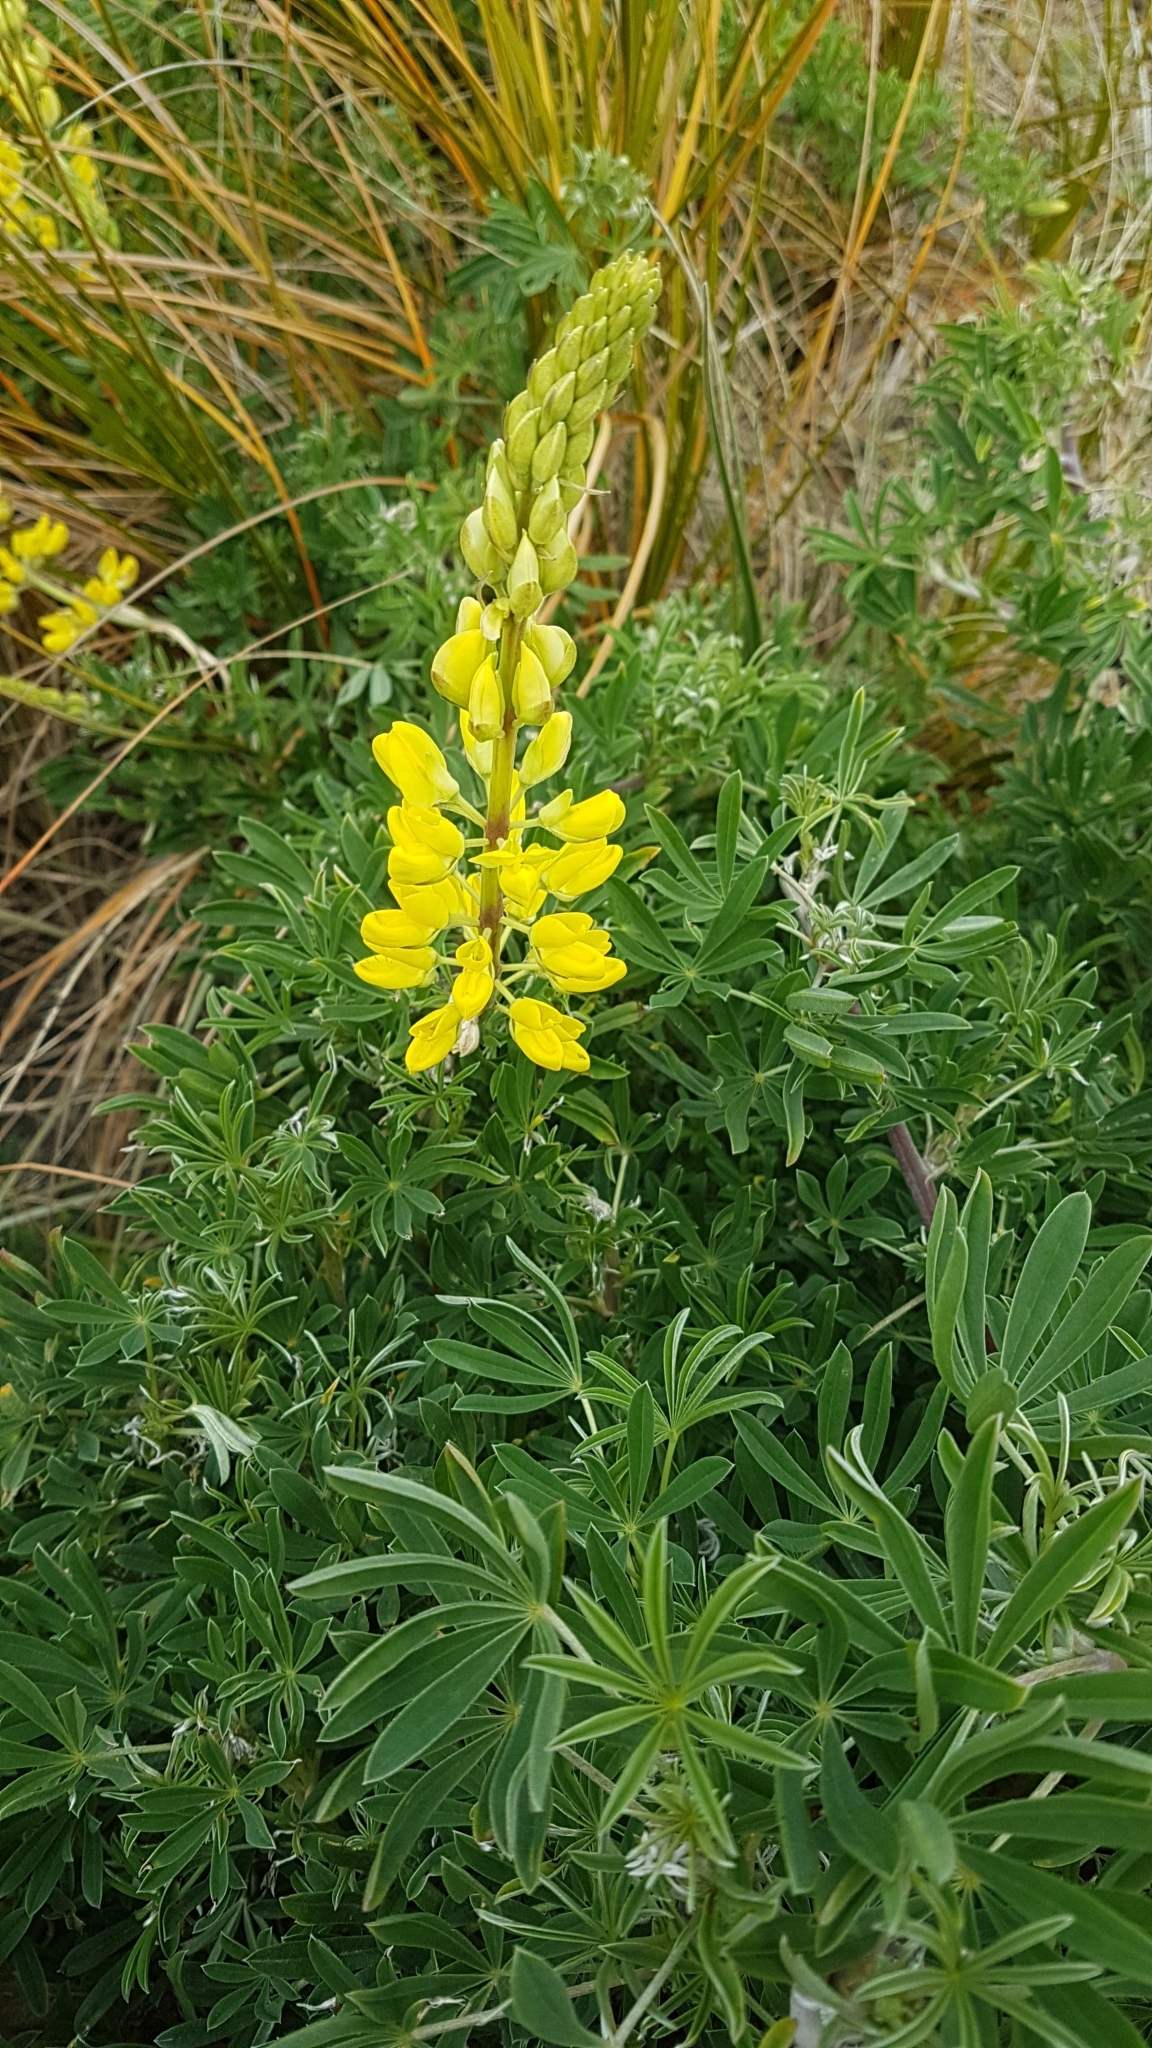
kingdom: Plantae
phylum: Tracheophyta
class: Magnoliopsida
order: Fabales
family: Fabaceae
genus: Lupinus
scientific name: Lupinus arboreus
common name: Yellow bush lupine
